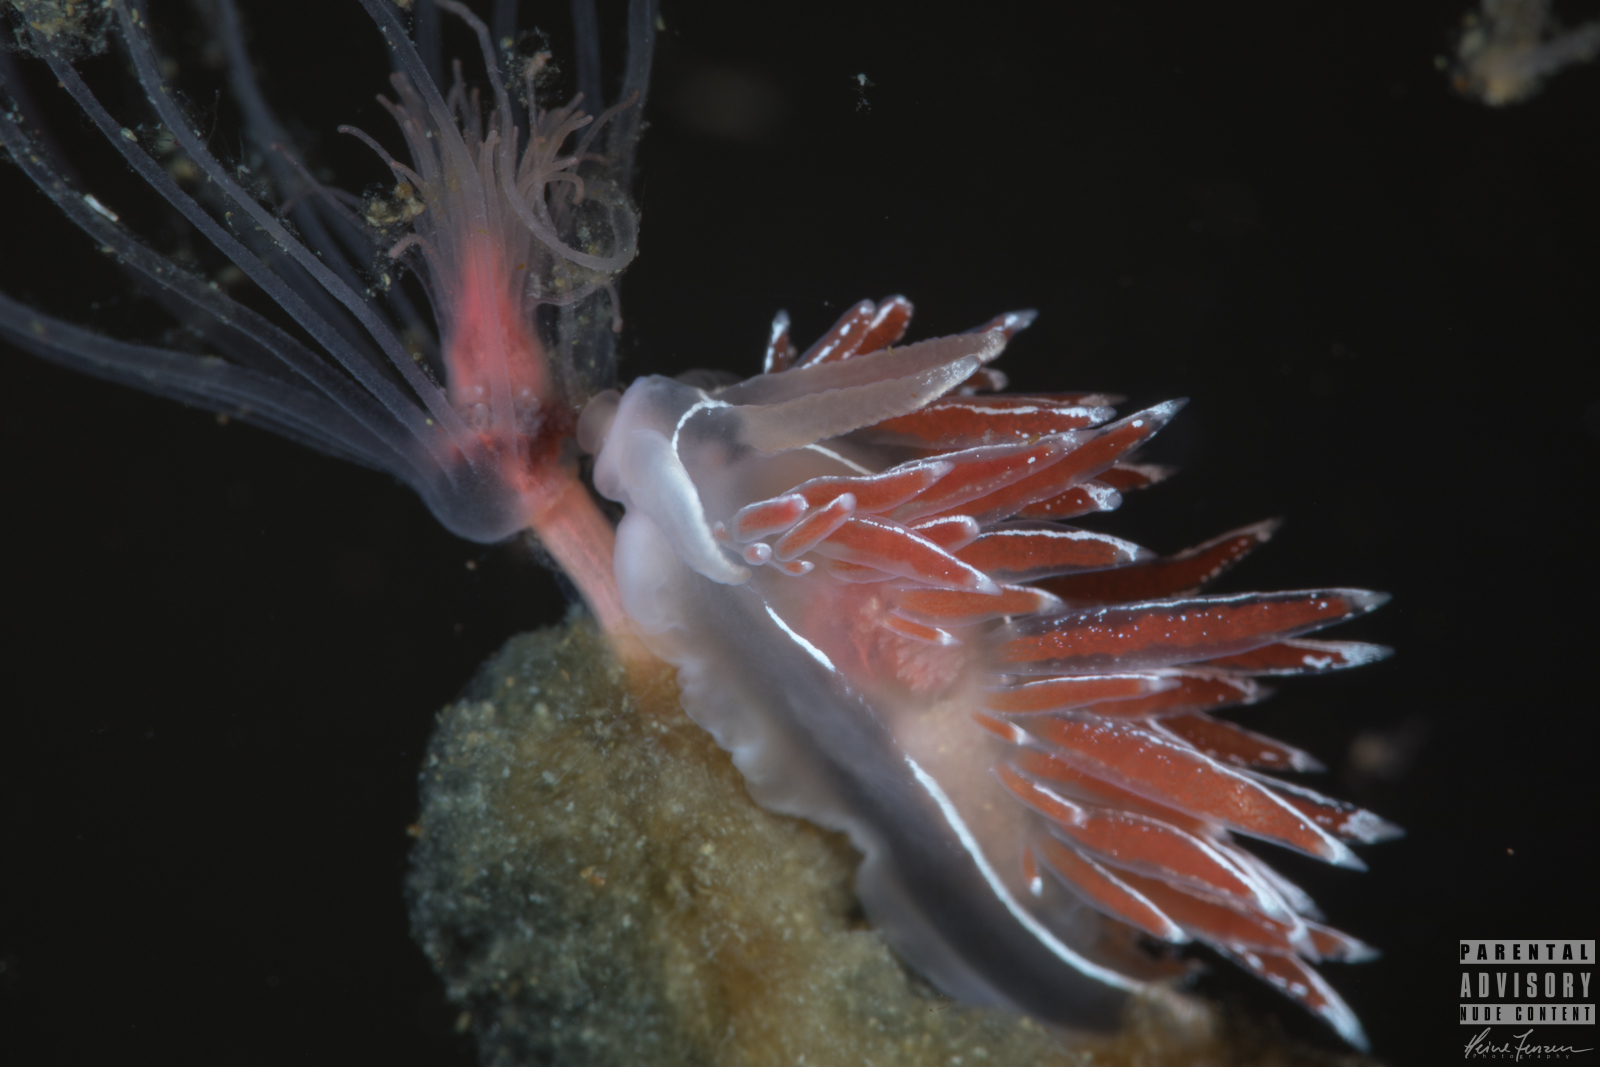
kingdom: Animalia
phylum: Mollusca
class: Gastropoda
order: Nudibranchia
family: Coryphellidae
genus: Coryphella
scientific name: Coryphella lineata
